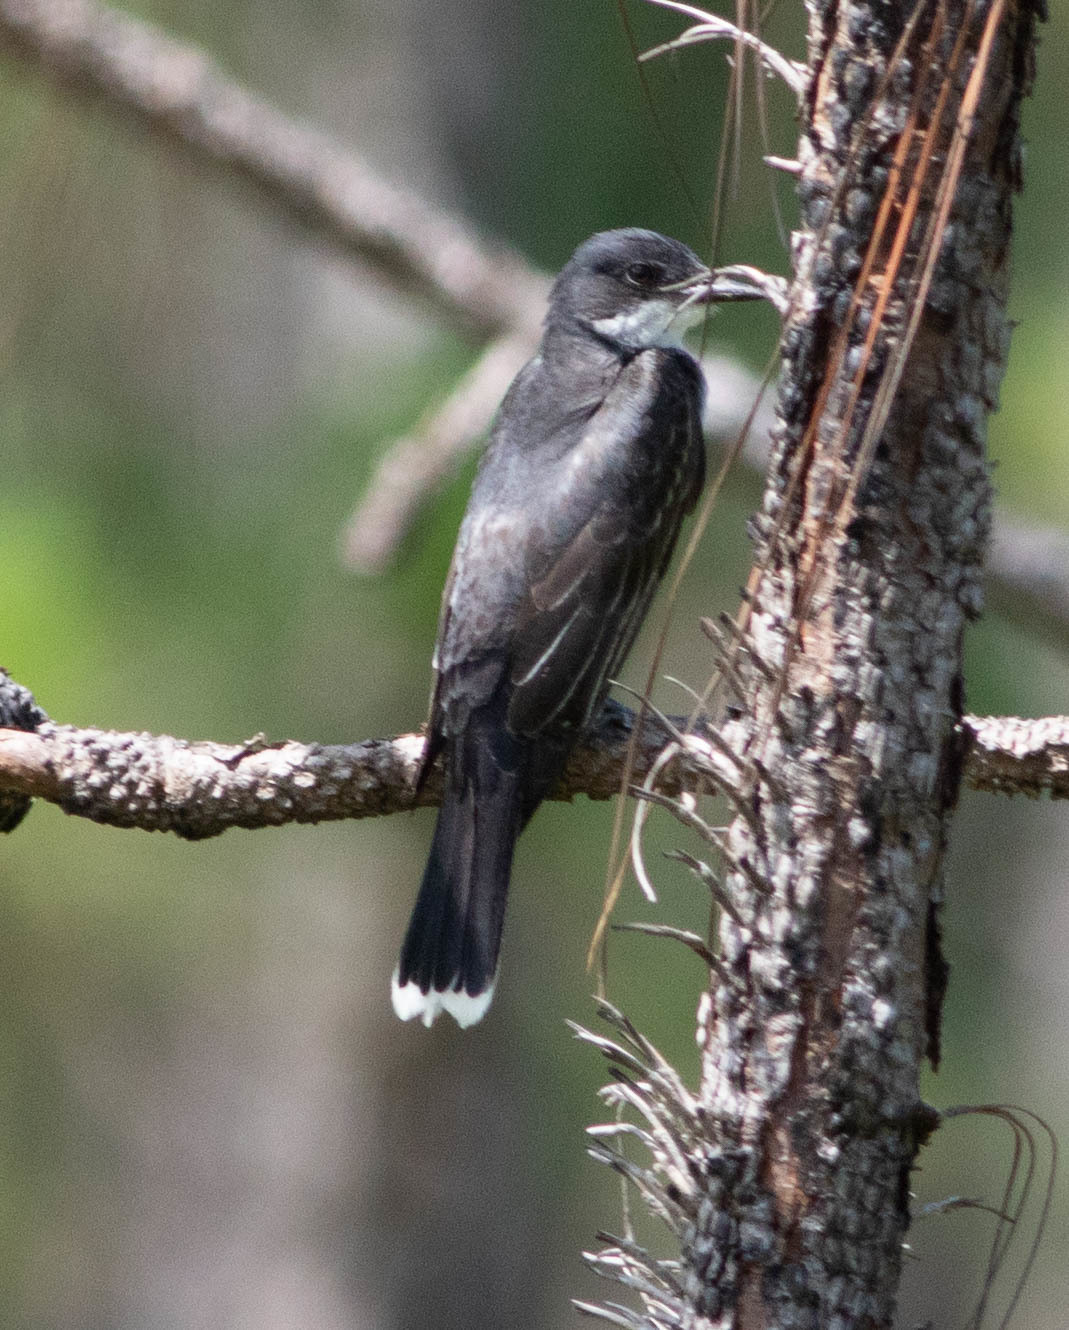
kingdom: Animalia
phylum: Chordata
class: Aves
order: Passeriformes
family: Tyrannidae
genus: Tyrannus
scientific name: Tyrannus tyrannus
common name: Eastern kingbird
